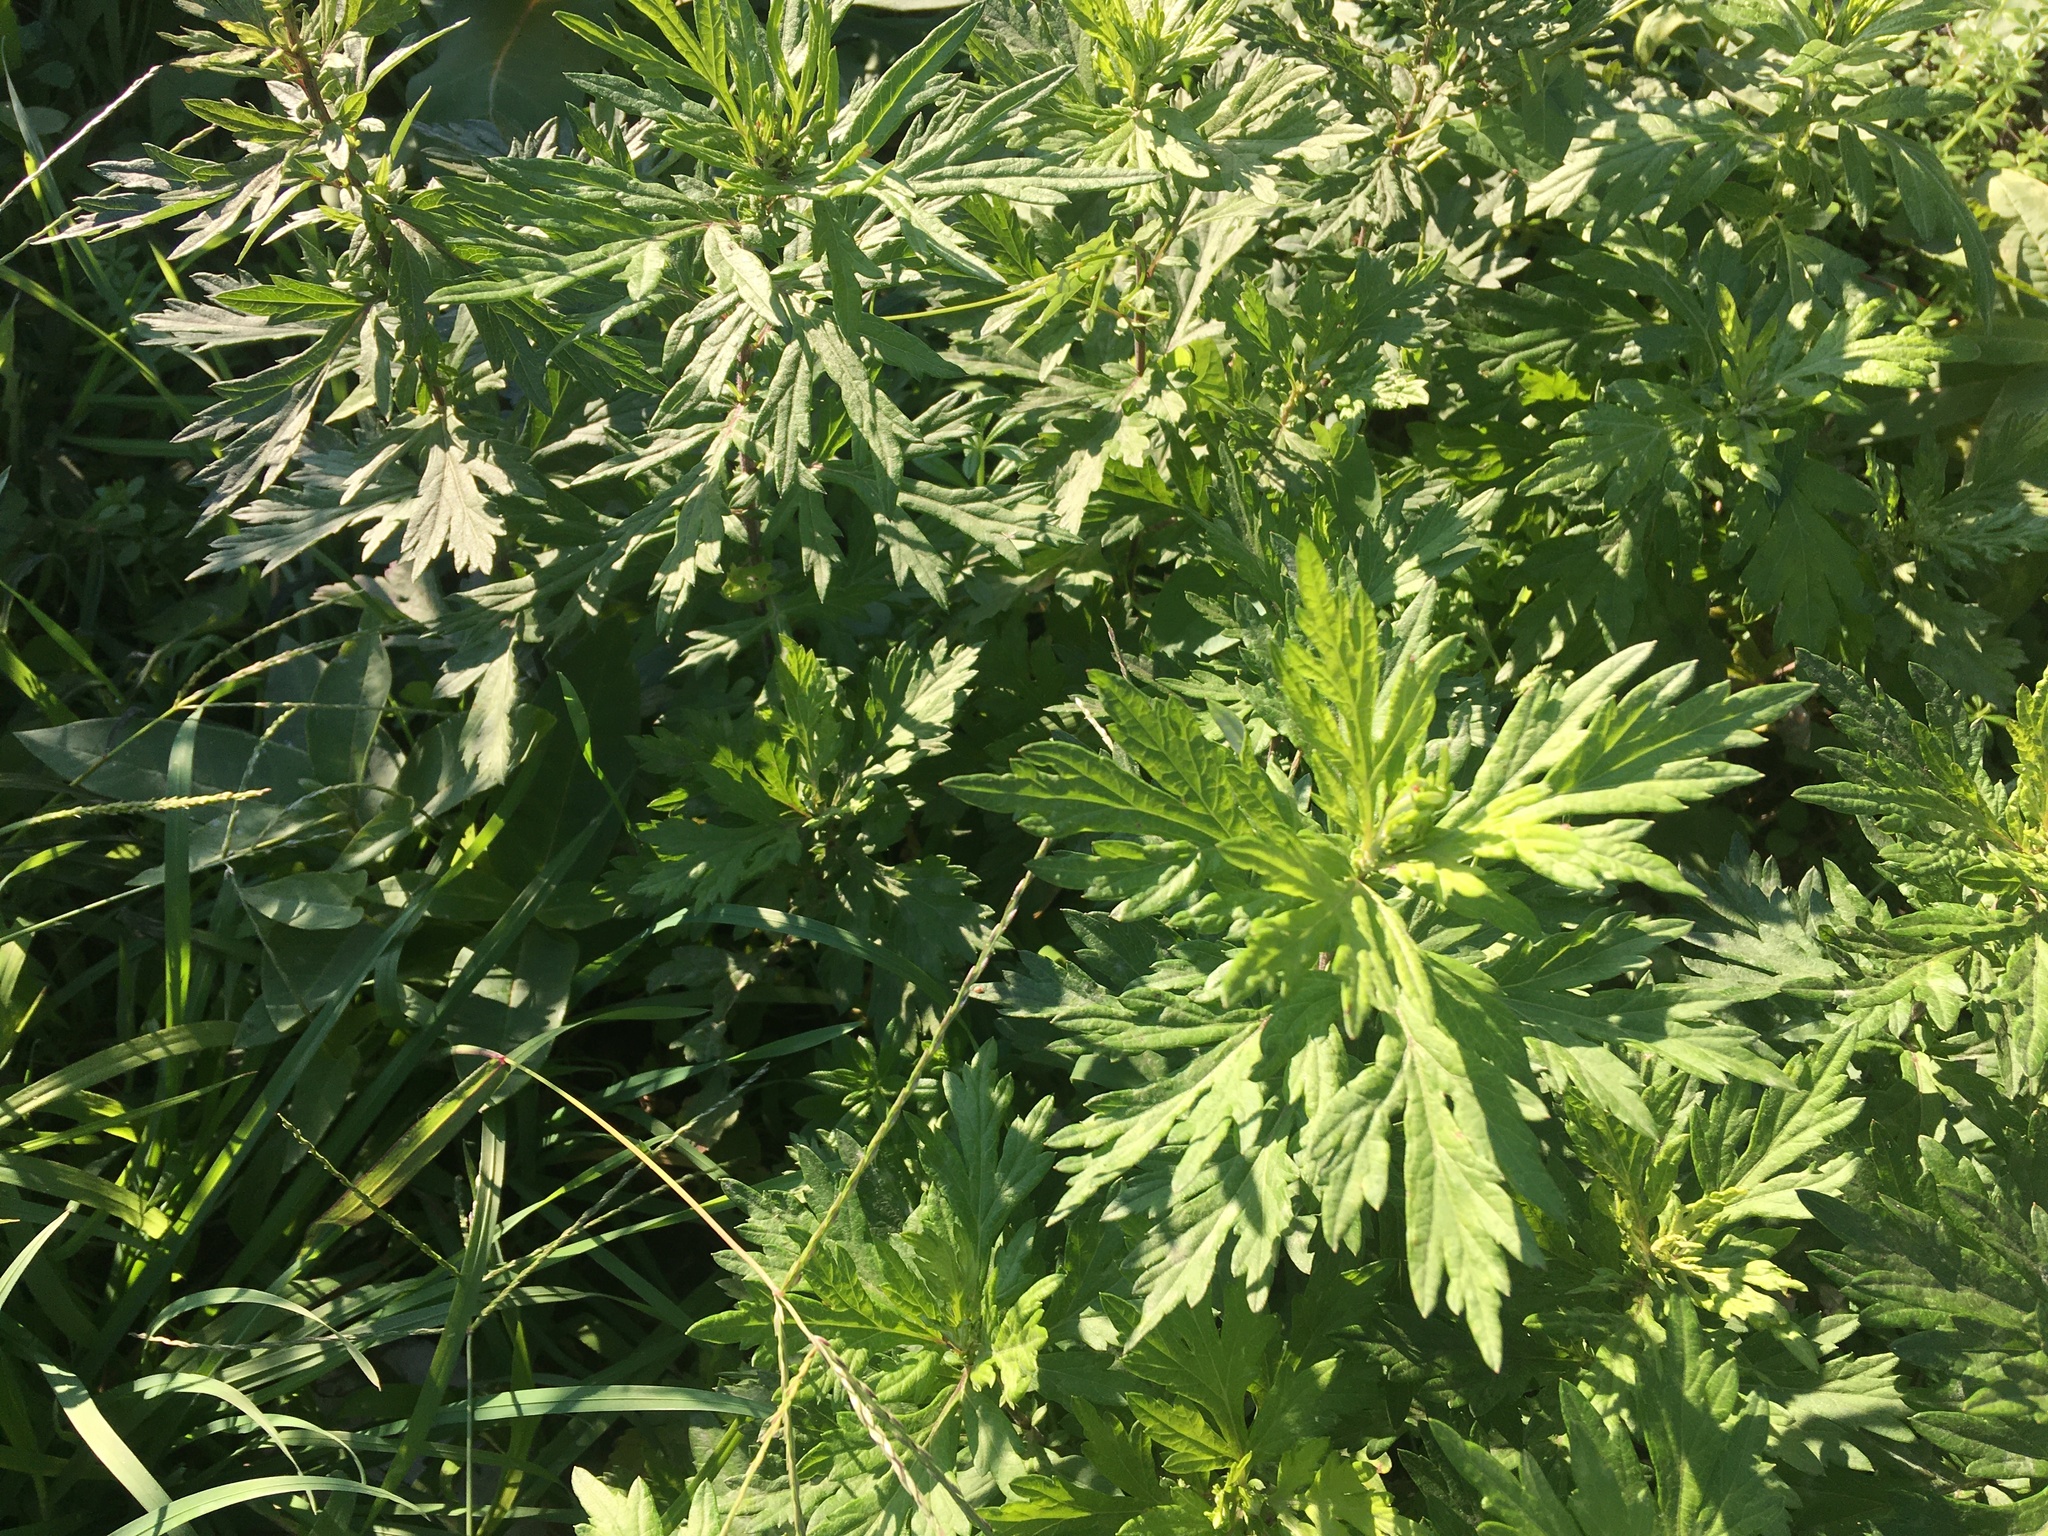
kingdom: Plantae
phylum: Tracheophyta
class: Magnoliopsida
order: Asterales
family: Asteraceae
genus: Artemisia
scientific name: Artemisia vulgaris
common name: Mugwort
